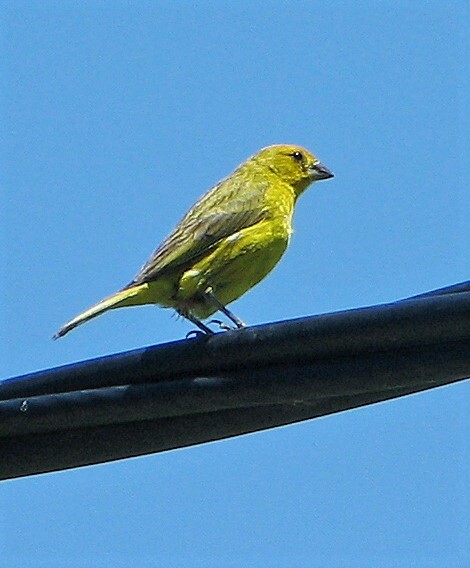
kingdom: Animalia
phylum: Chordata
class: Aves
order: Passeriformes
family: Thraupidae
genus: Sicalis
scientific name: Sicalis flaveola
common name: Saffron finch
